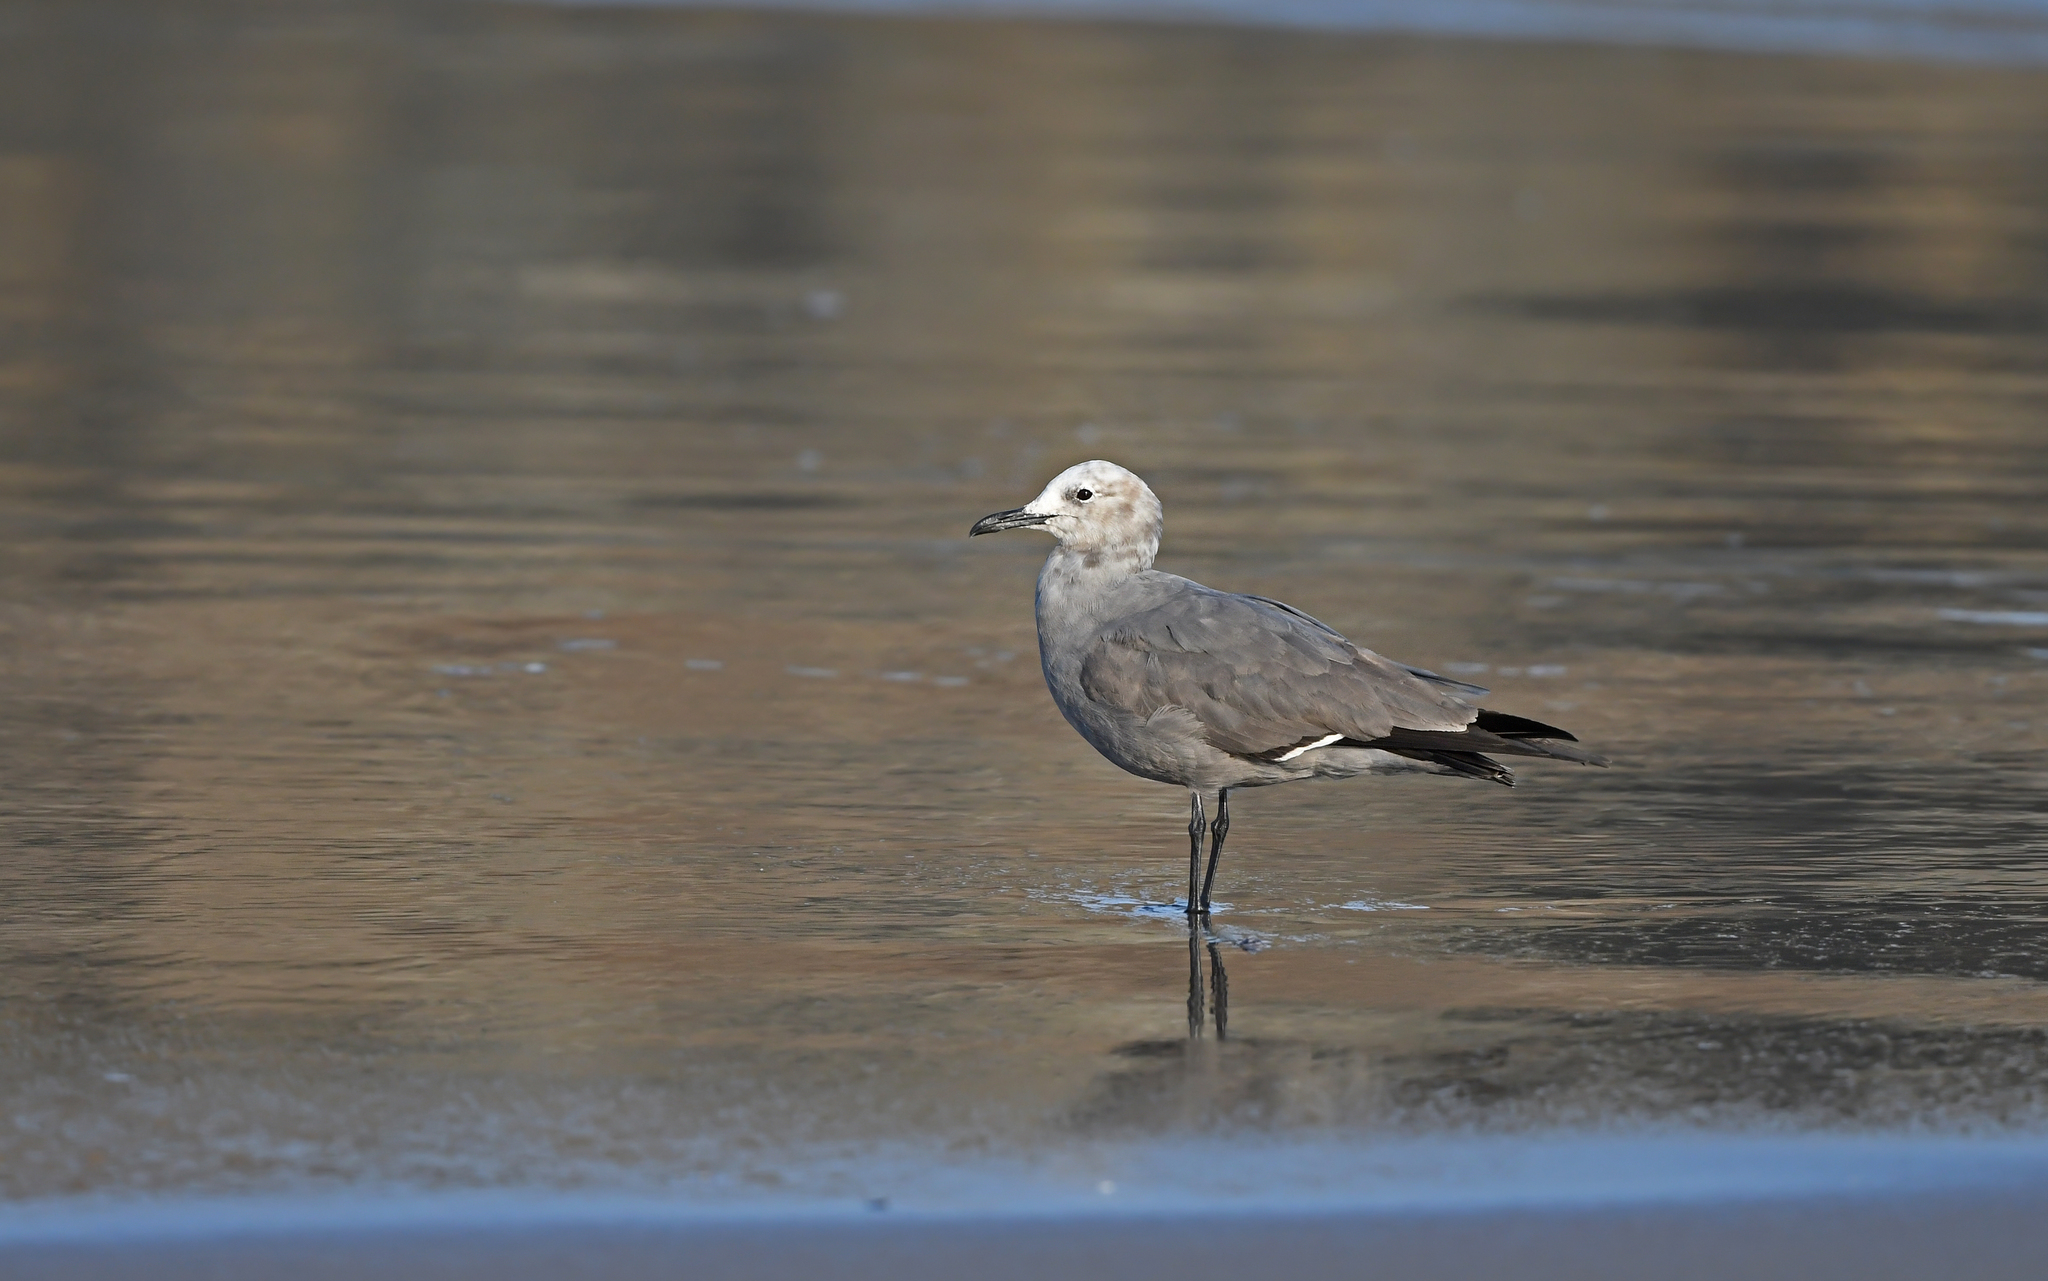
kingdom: Animalia
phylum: Chordata
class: Aves
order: Charadriiformes
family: Laridae
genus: Leucophaeus
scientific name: Leucophaeus modestus
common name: Gray gull
